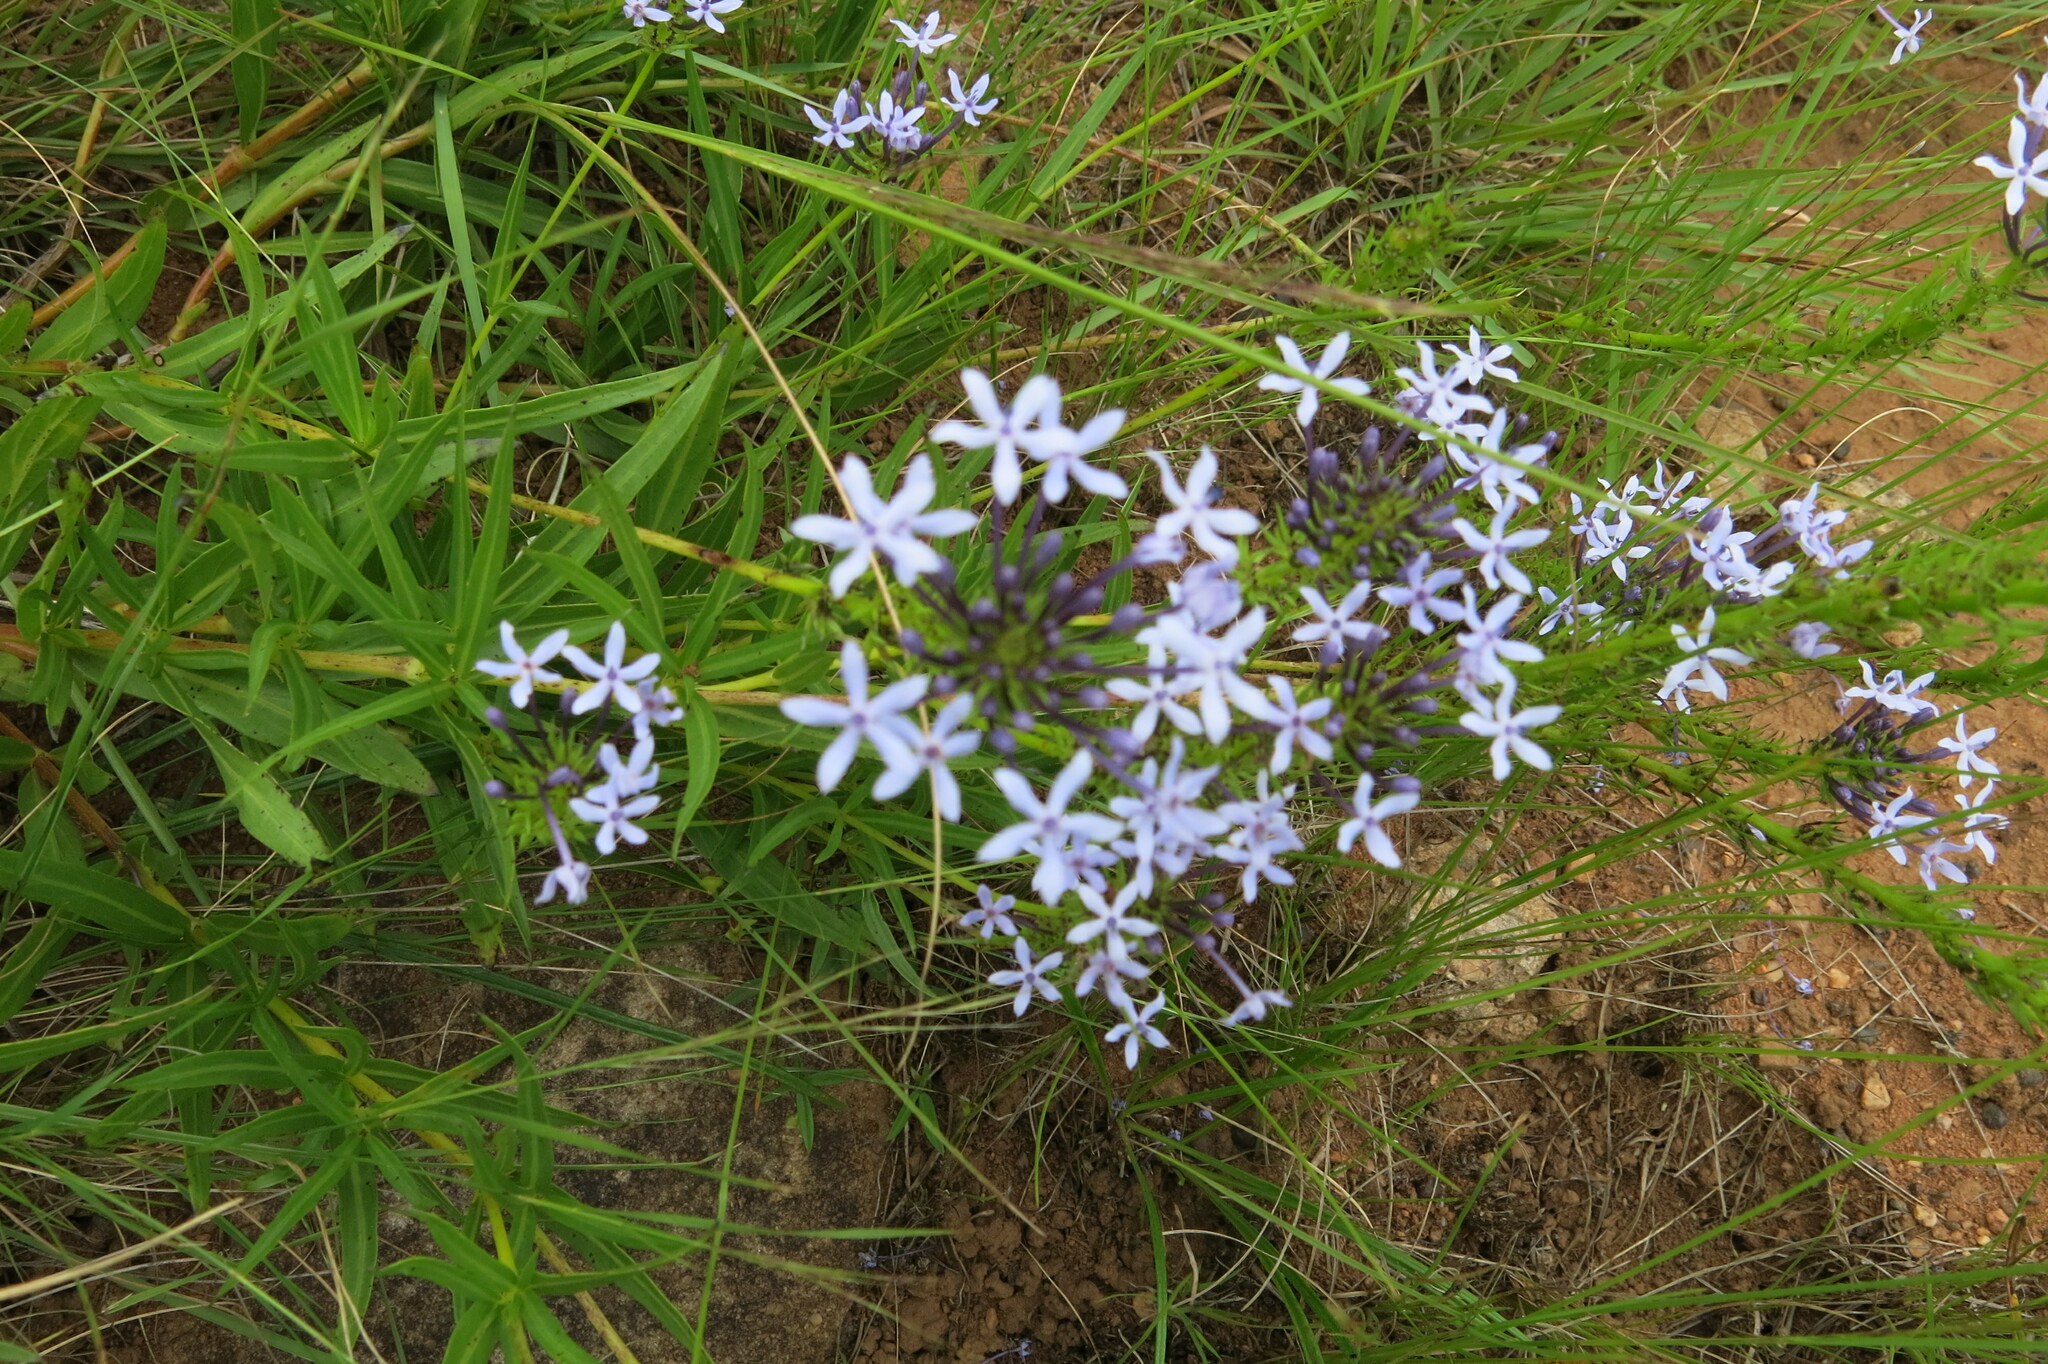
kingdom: Plantae
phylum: Tracheophyta
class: Magnoliopsida
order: Gentianales
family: Rubiaceae
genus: Pentanisia
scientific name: Pentanisia angustifolia
